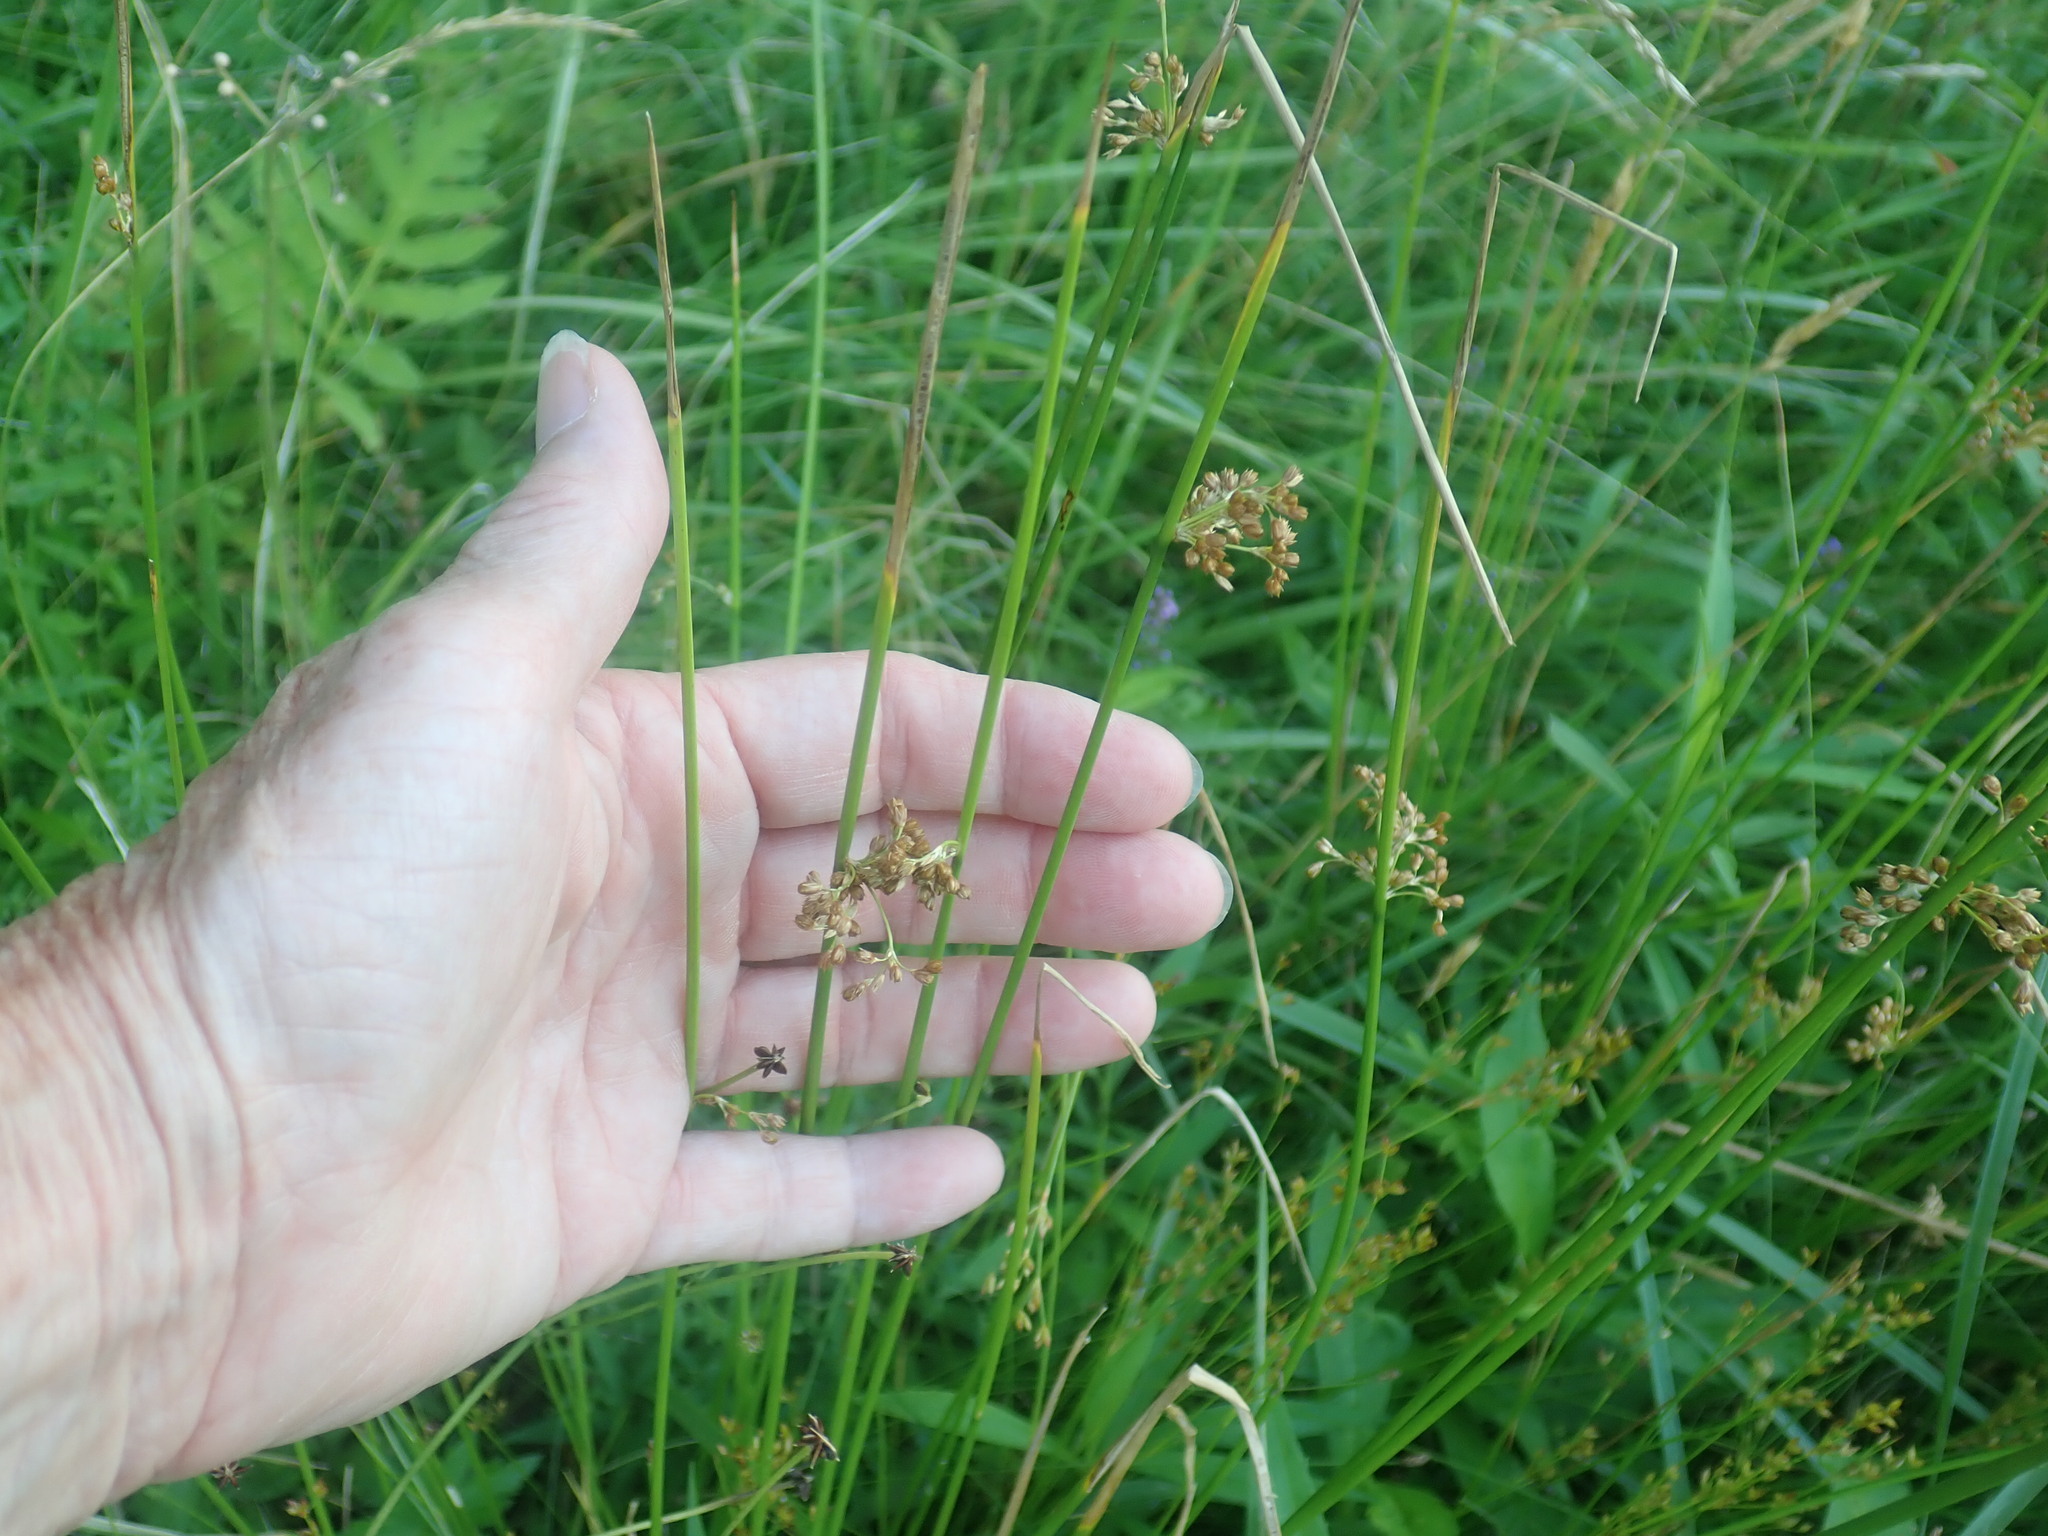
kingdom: Plantae
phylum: Tracheophyta
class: Liliopsida
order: Poales
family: Juncaceae
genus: Juncus
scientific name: Juncus
